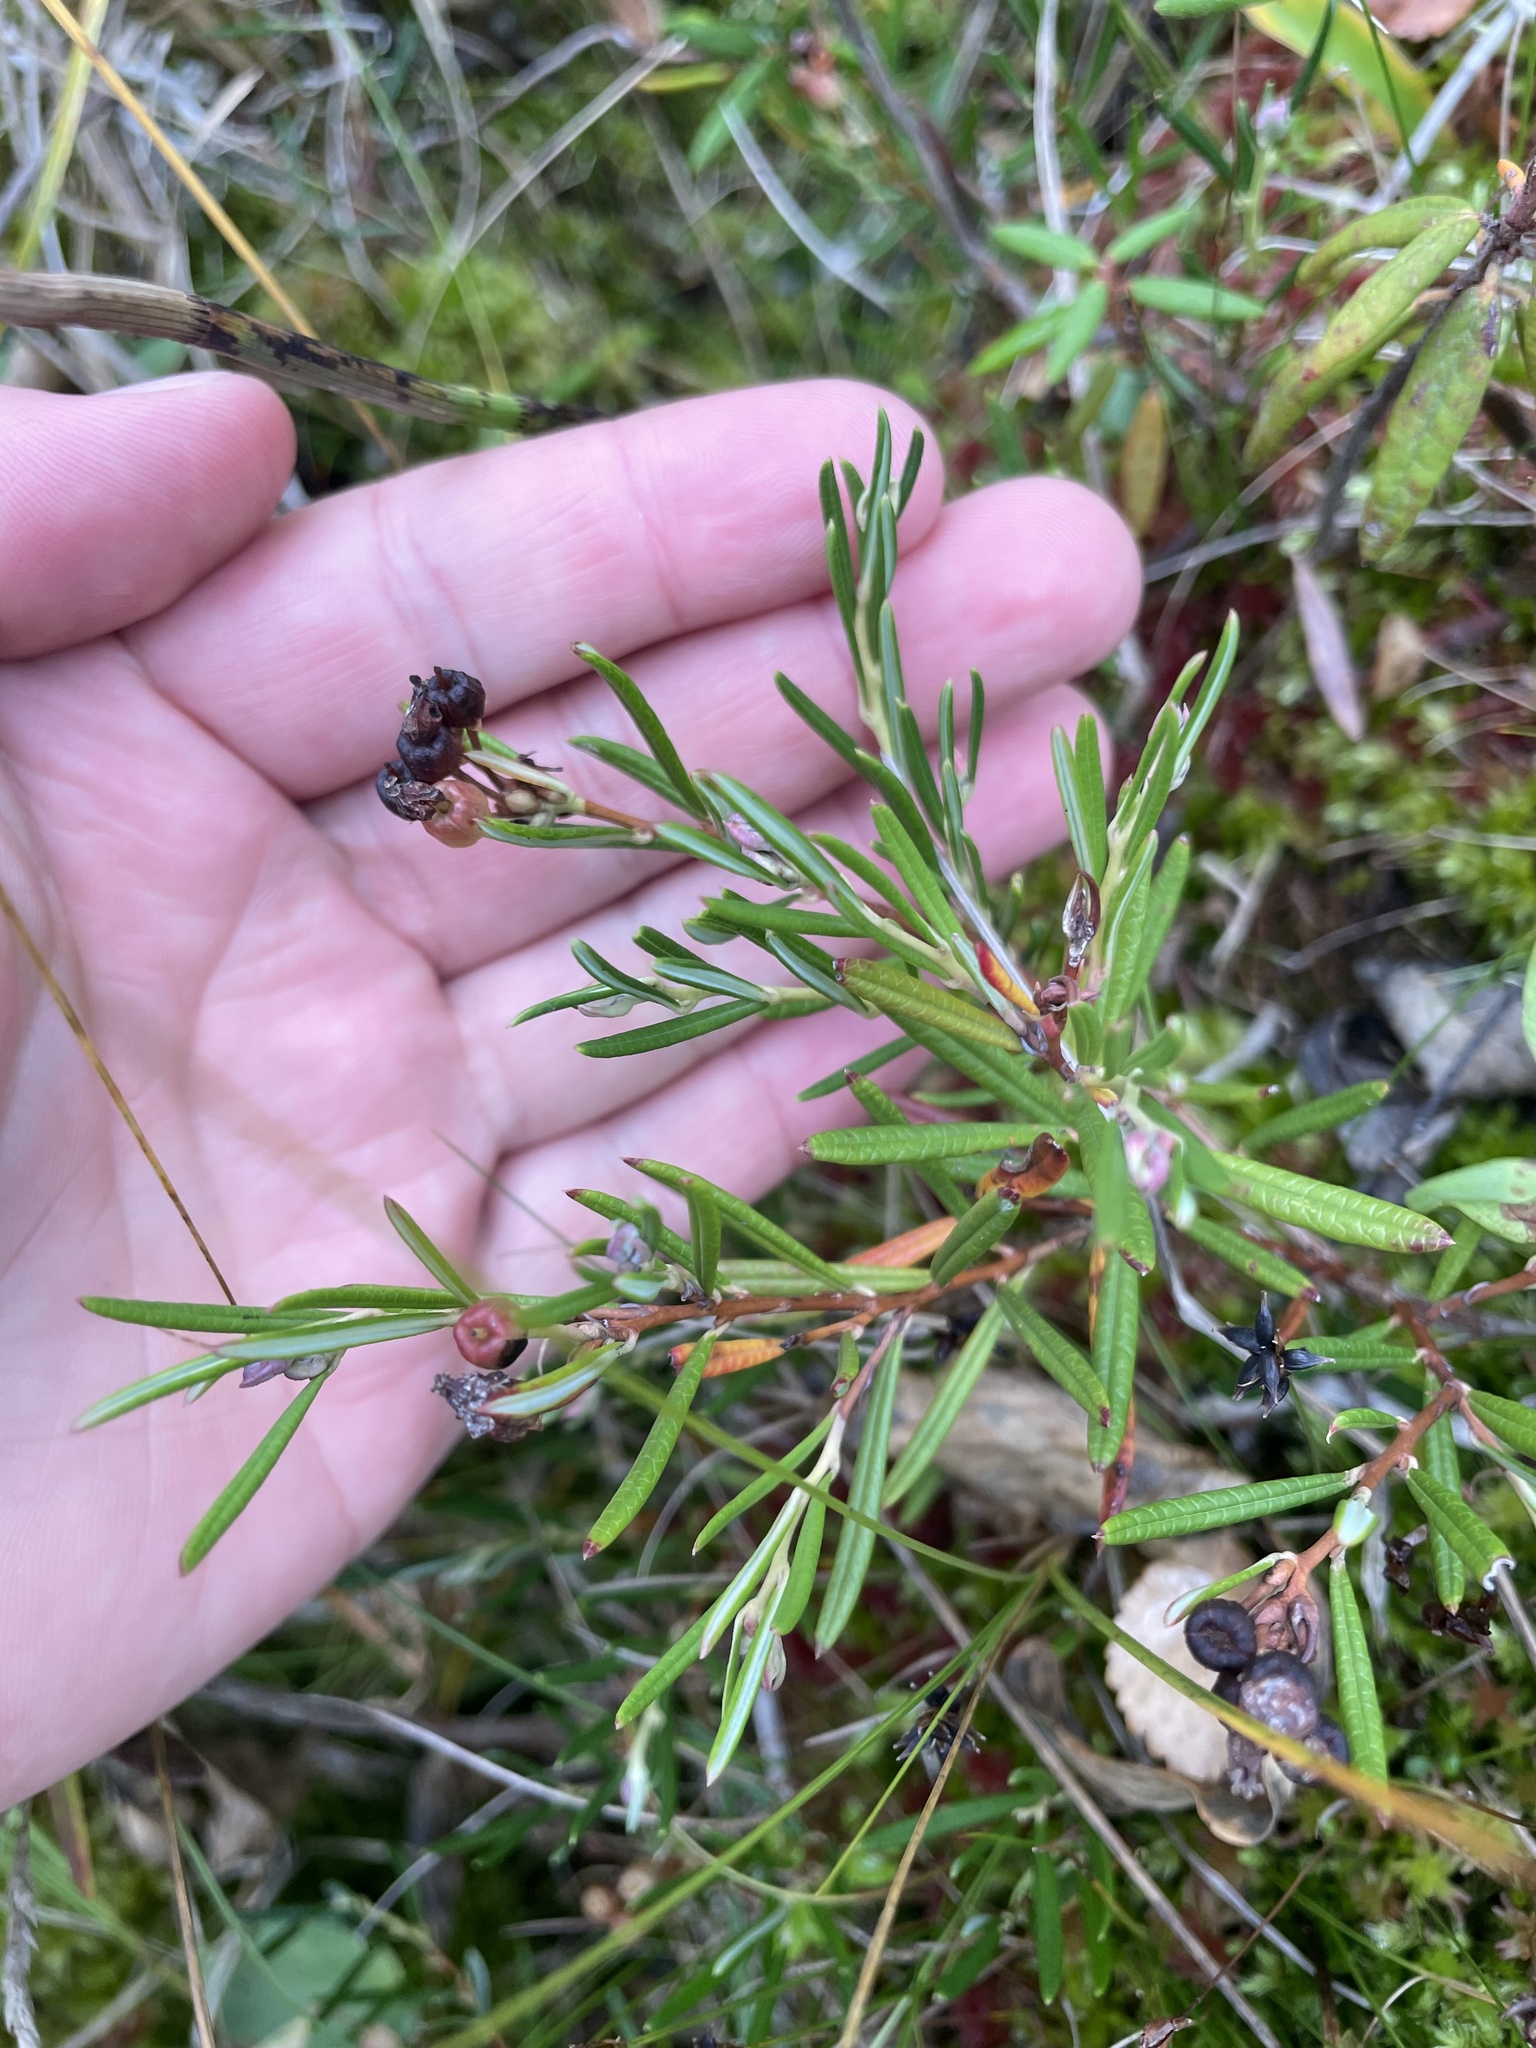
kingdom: Plantae
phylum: Tracheophyta
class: Magnoliopsida
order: Ericales
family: Ericaceae
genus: Andromeda
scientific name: Andromeda polifolia
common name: Bog-rosemary
